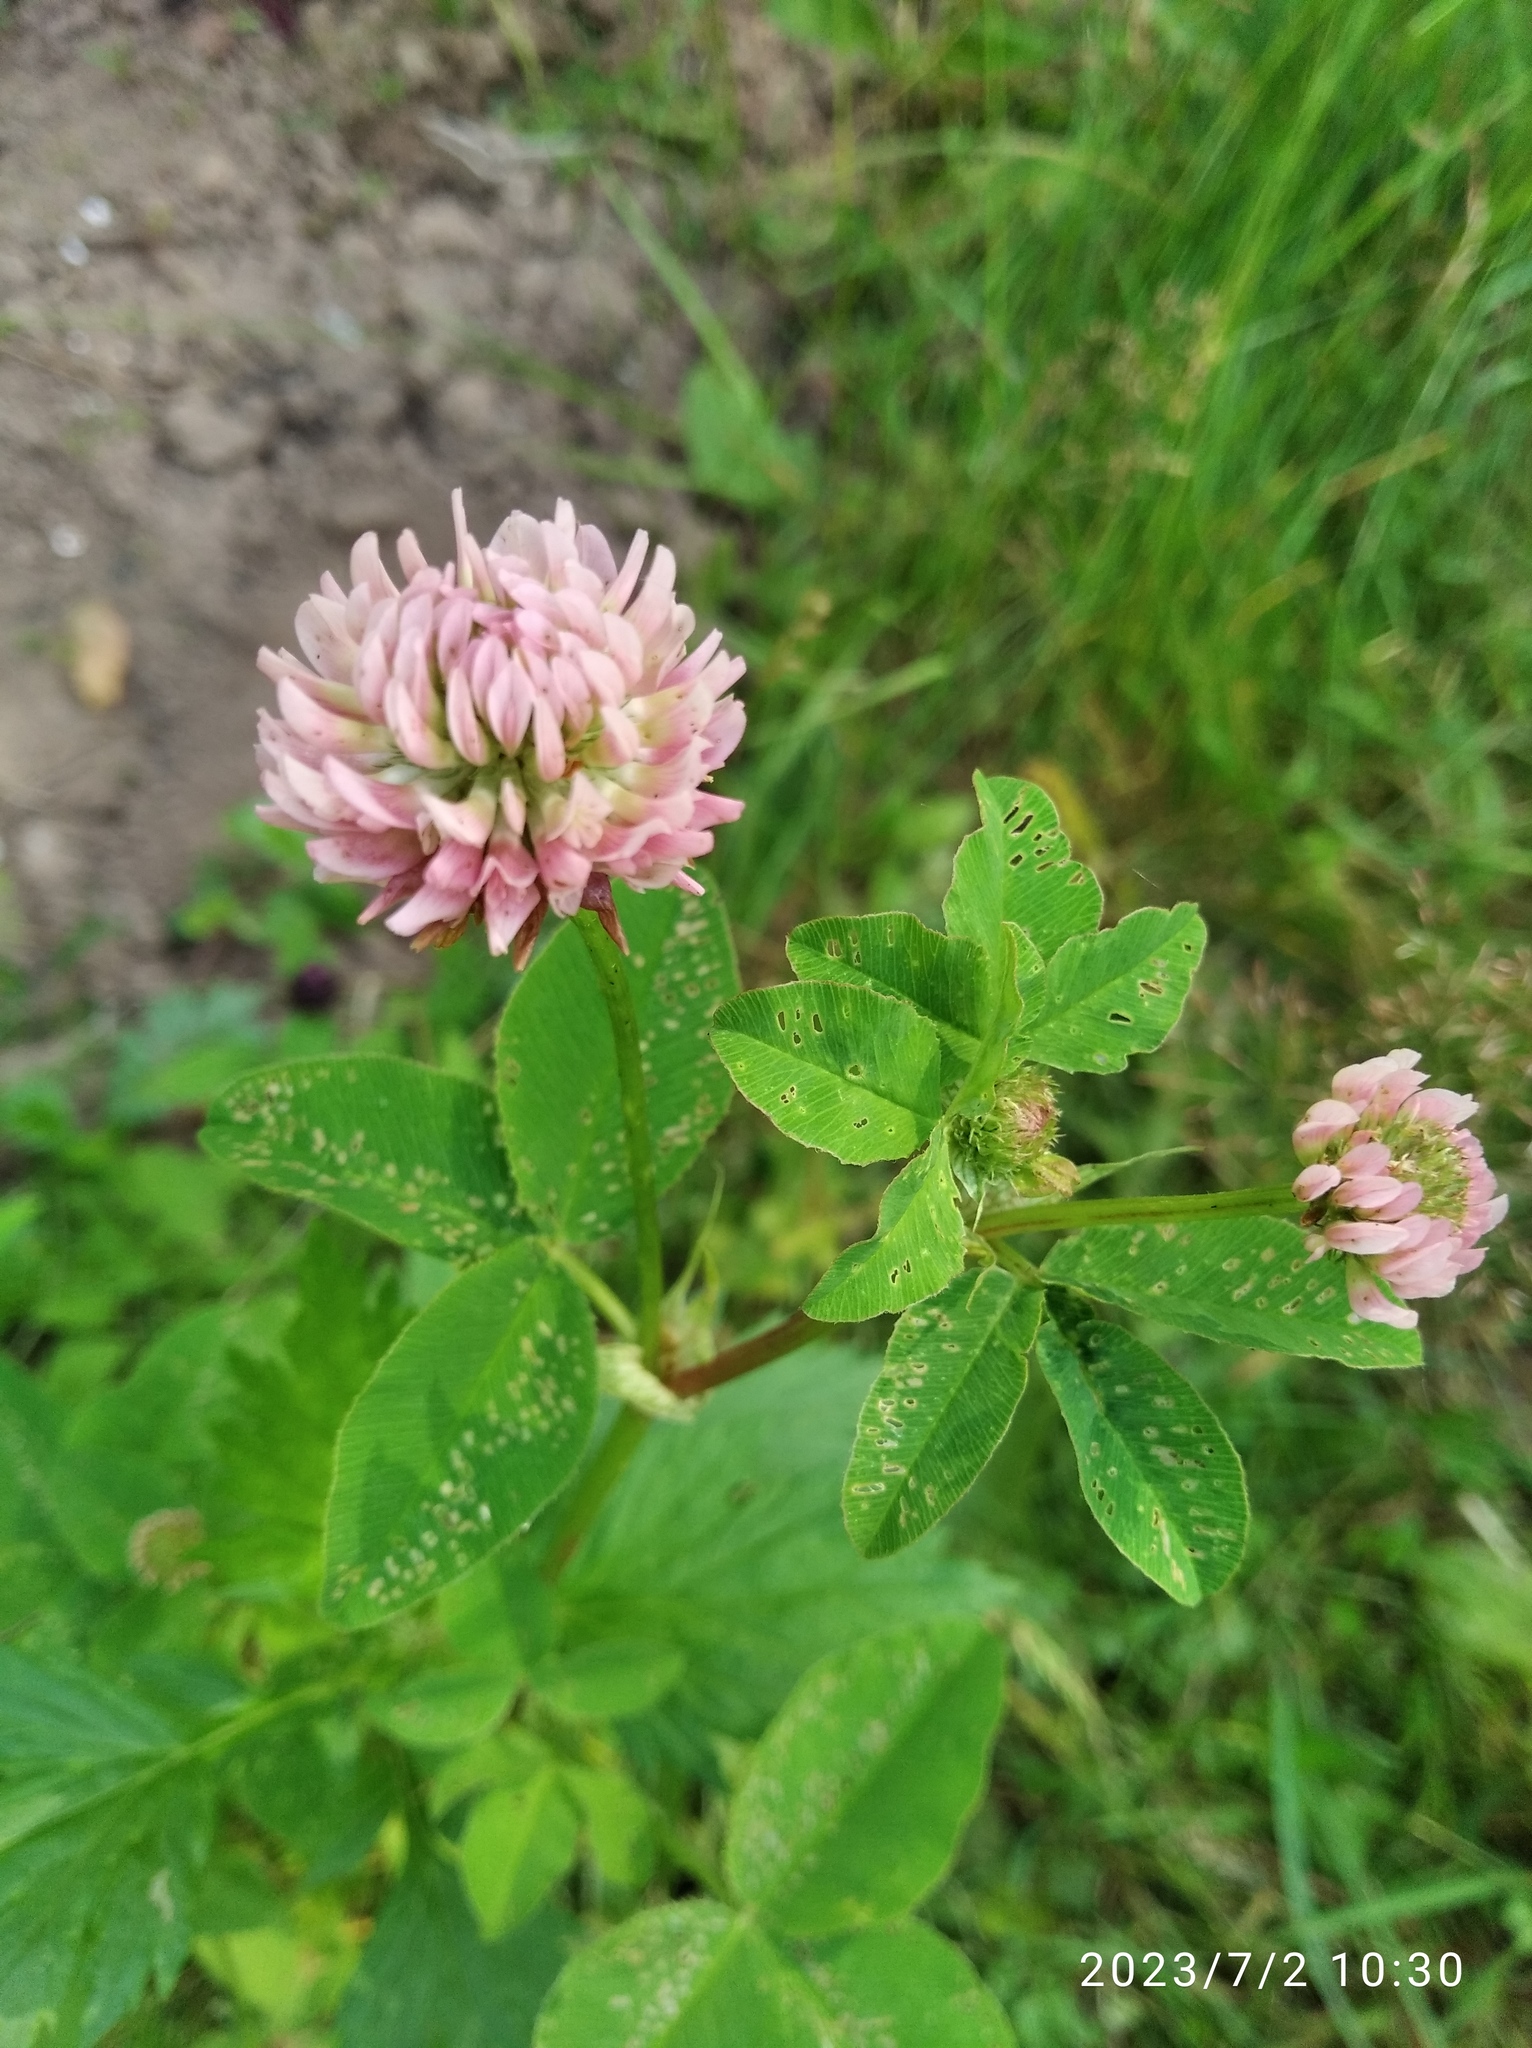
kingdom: Plantae
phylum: Tracheophyta
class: Magnoliopsida
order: Fabales
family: Fabaceae
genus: Trifolium
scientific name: Trifolium hybridum
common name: Alsike clover
